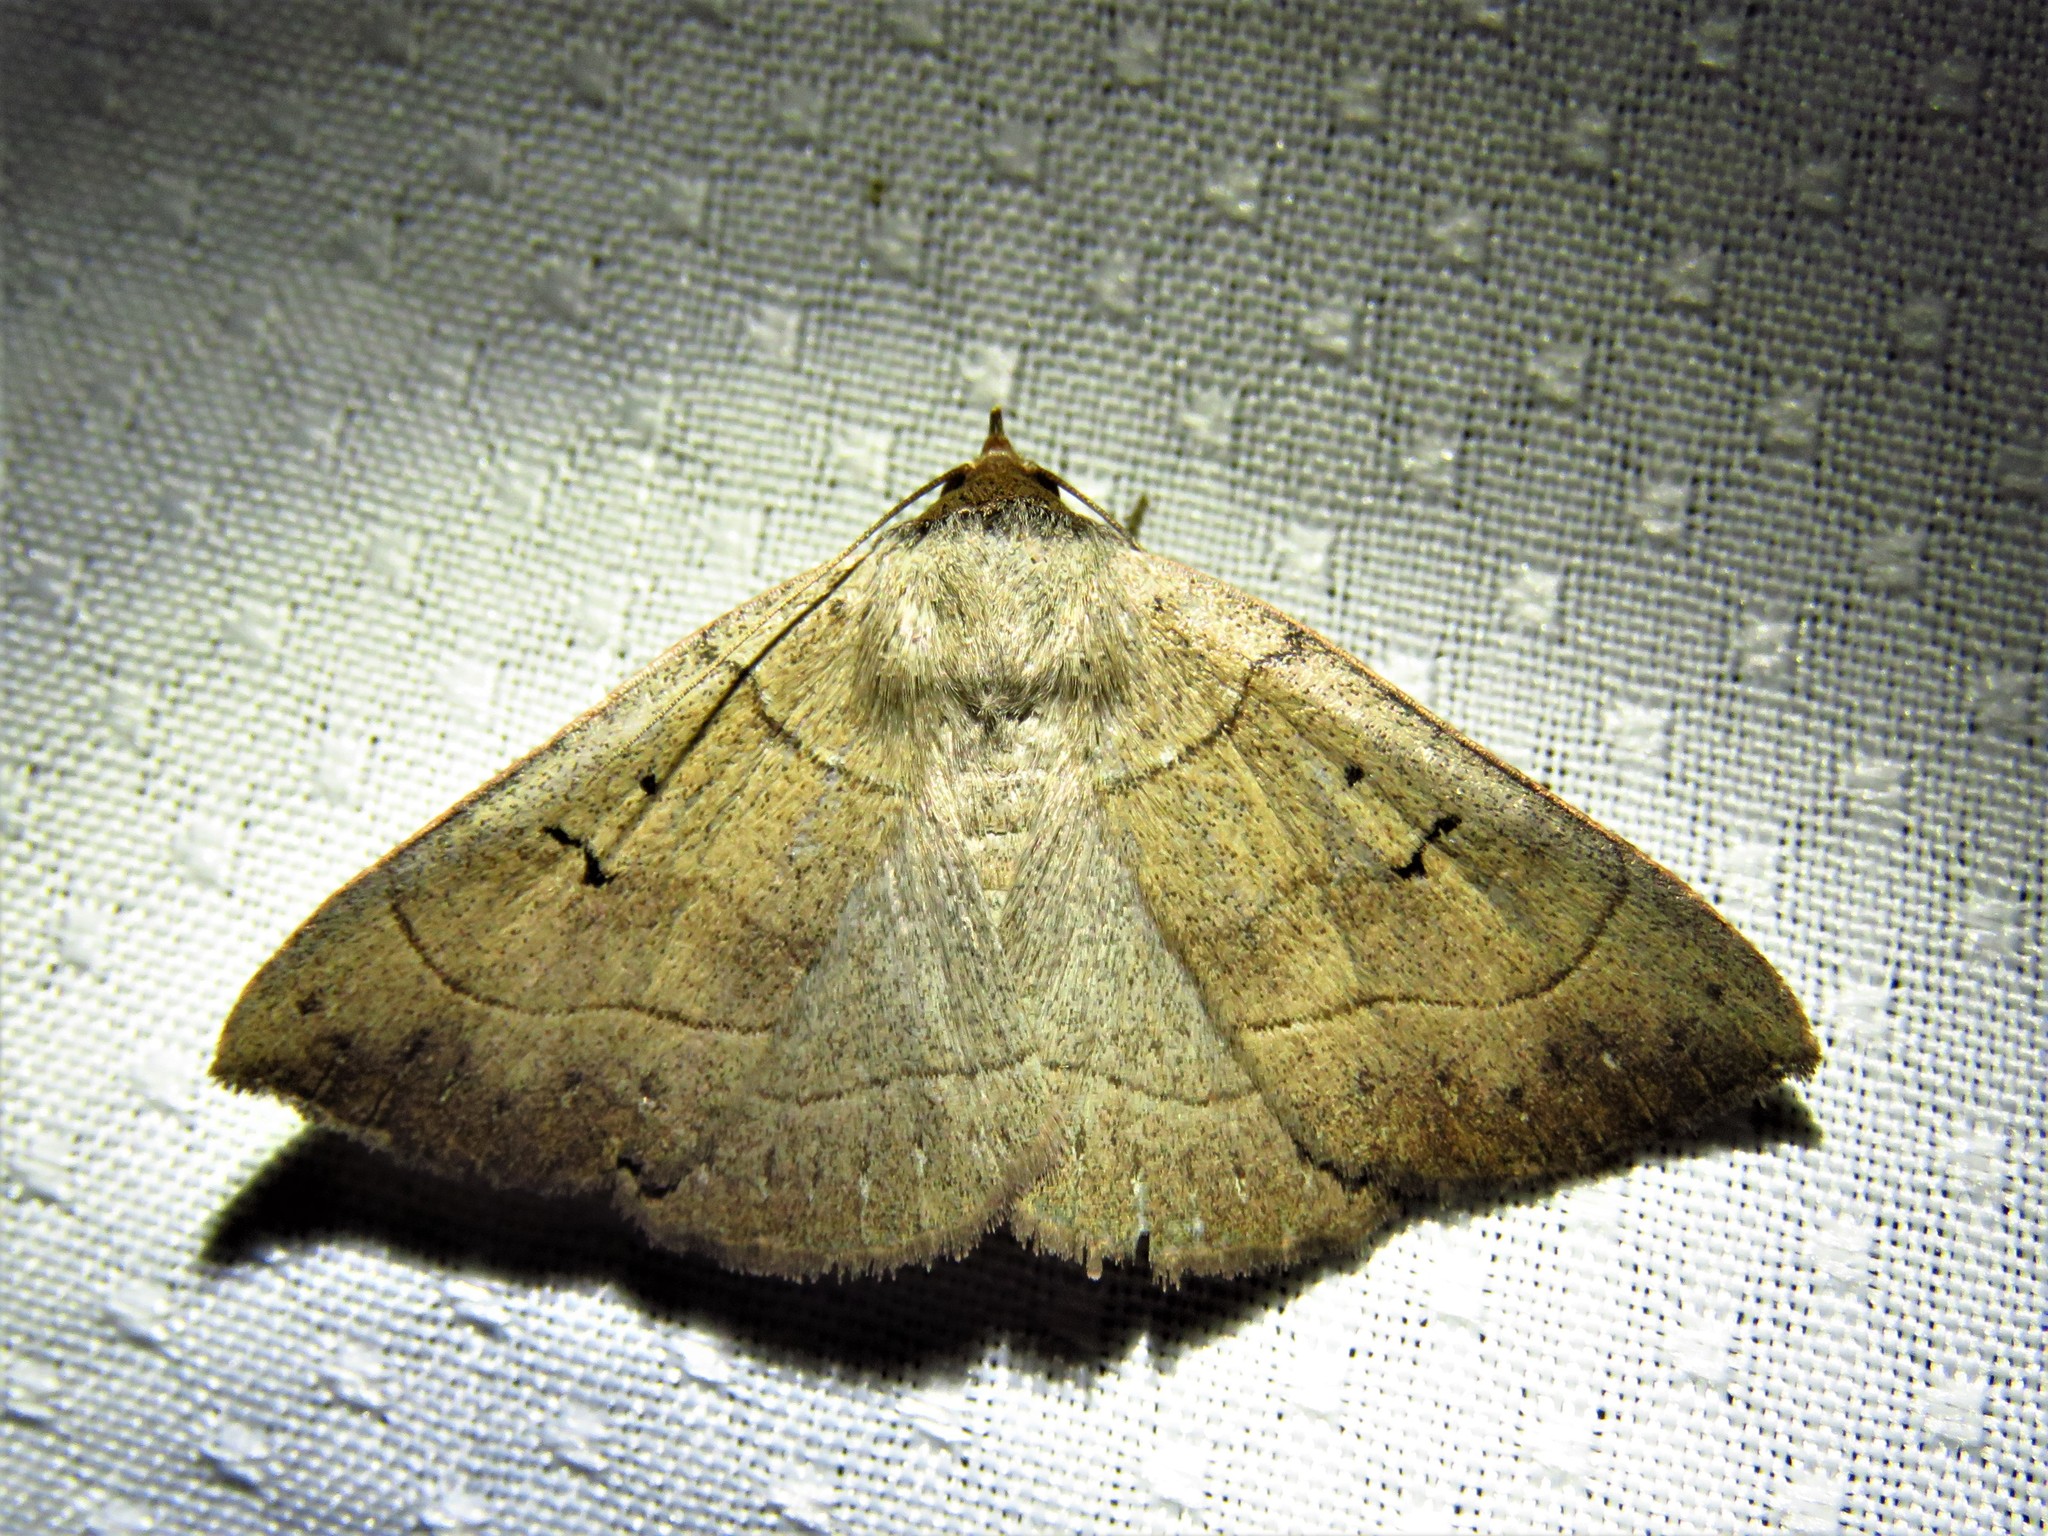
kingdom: Animalia
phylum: Arthropoda
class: Insecta
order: Lepidoptera
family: Erebidae
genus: Panopoda
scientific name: Panopoda carneicosta
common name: Brown panopoda moth
